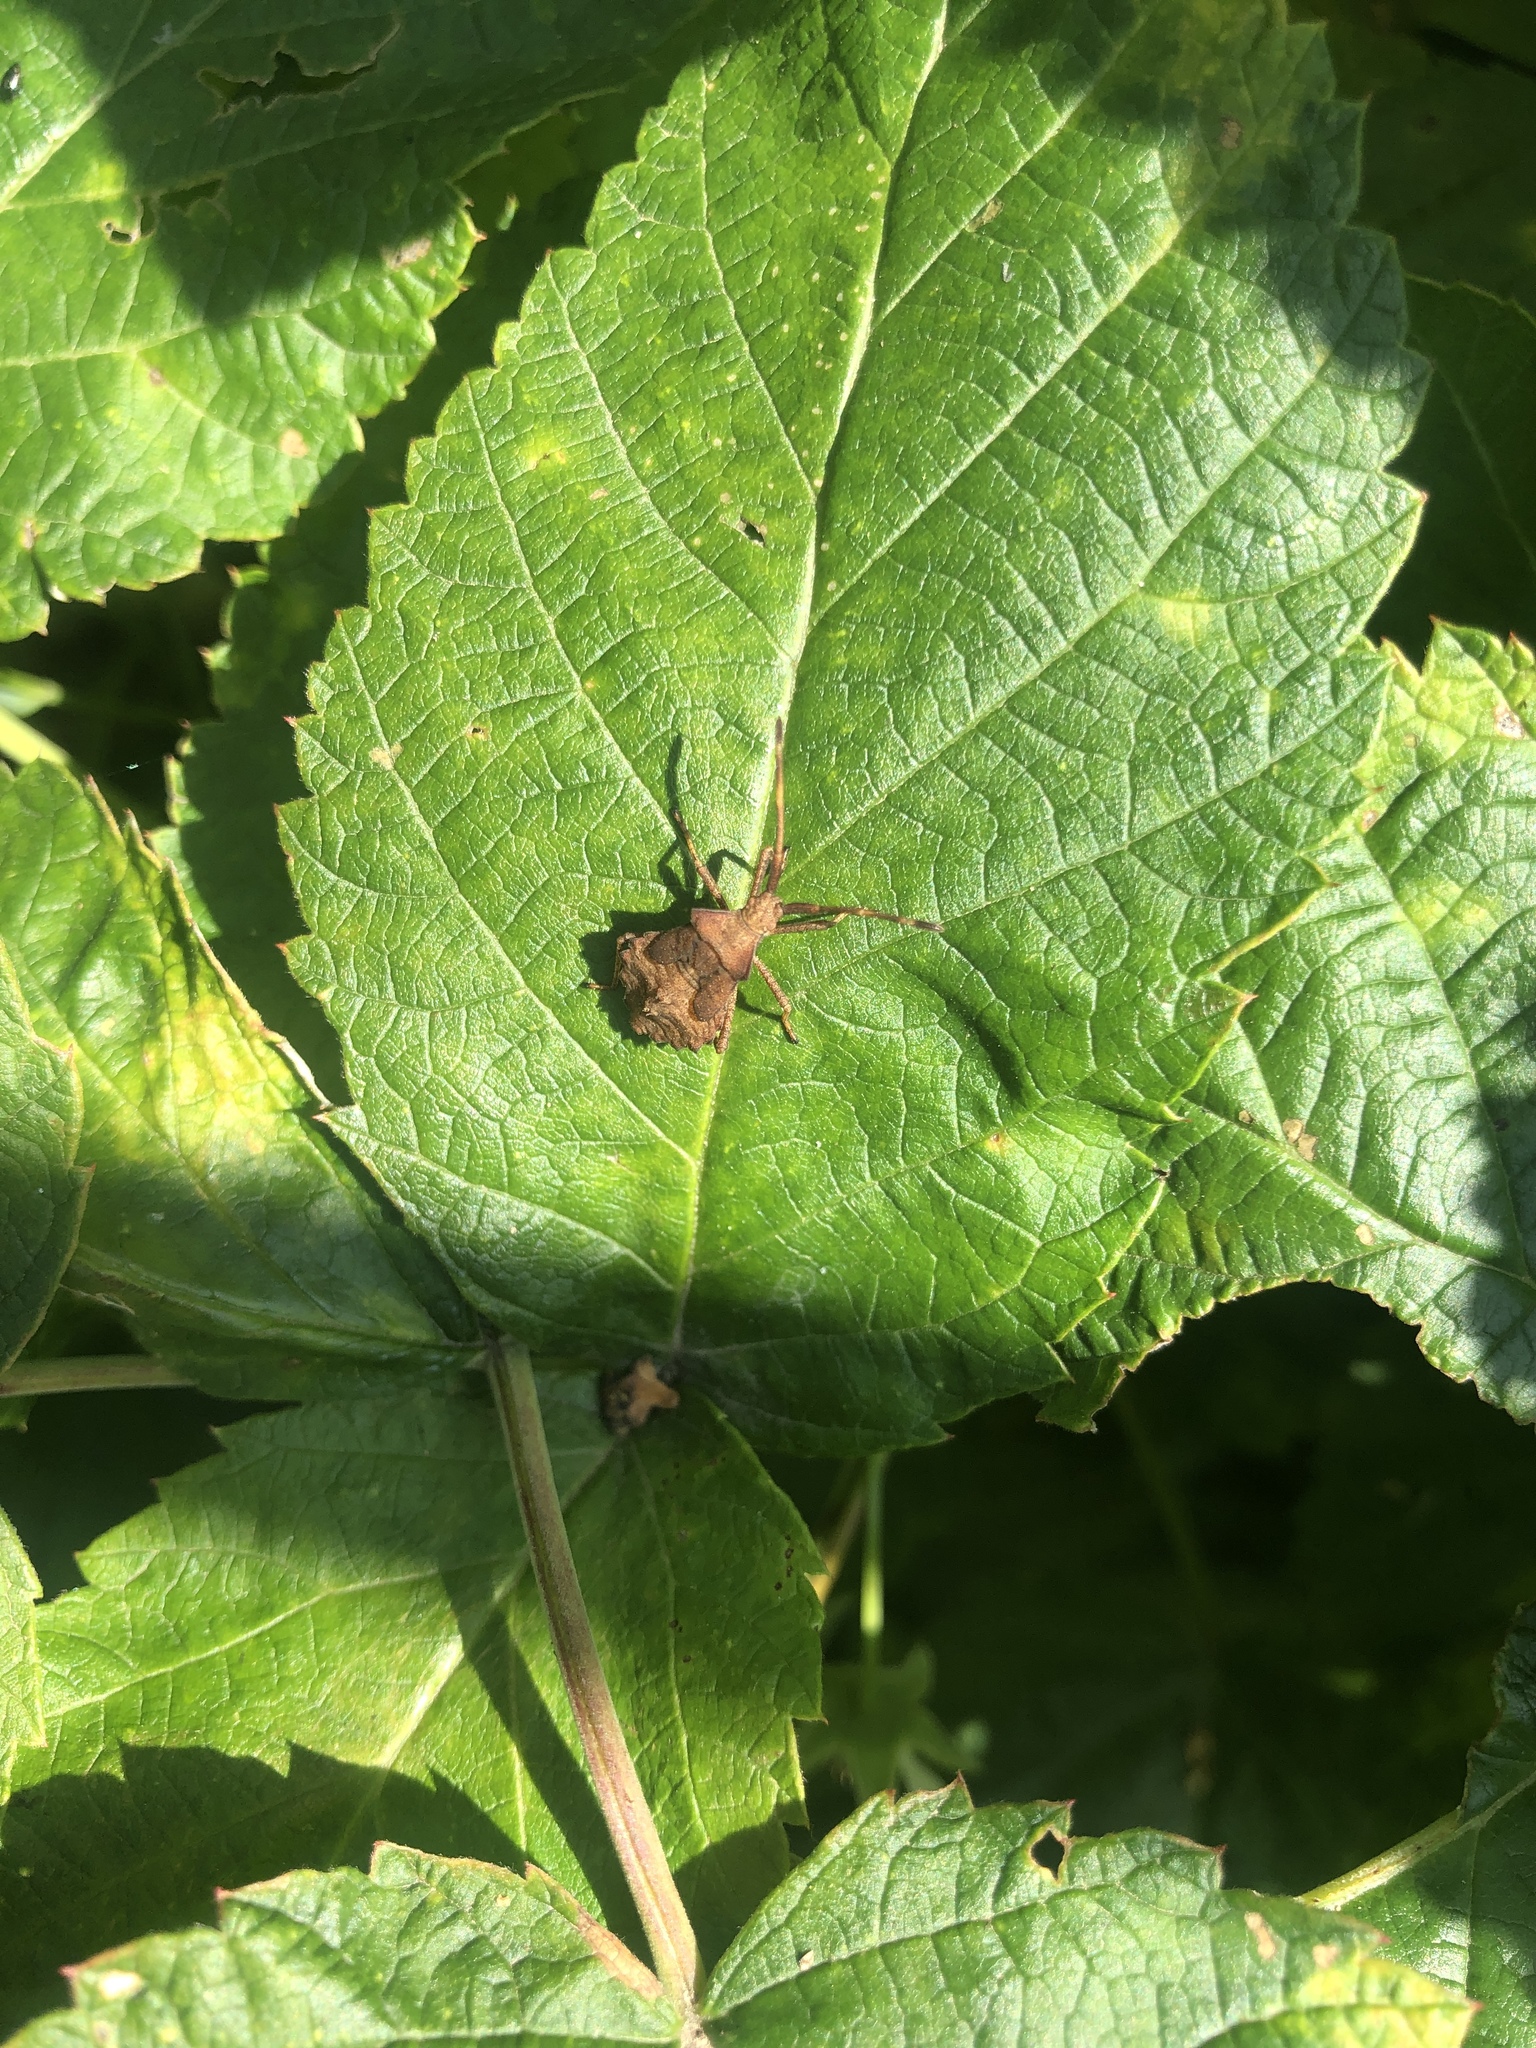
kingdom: Animalia
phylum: Arthropoda
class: Insecta
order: Hemiptera
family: Coreidae
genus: Coreus
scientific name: Coreus marginatus
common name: Dock bug
